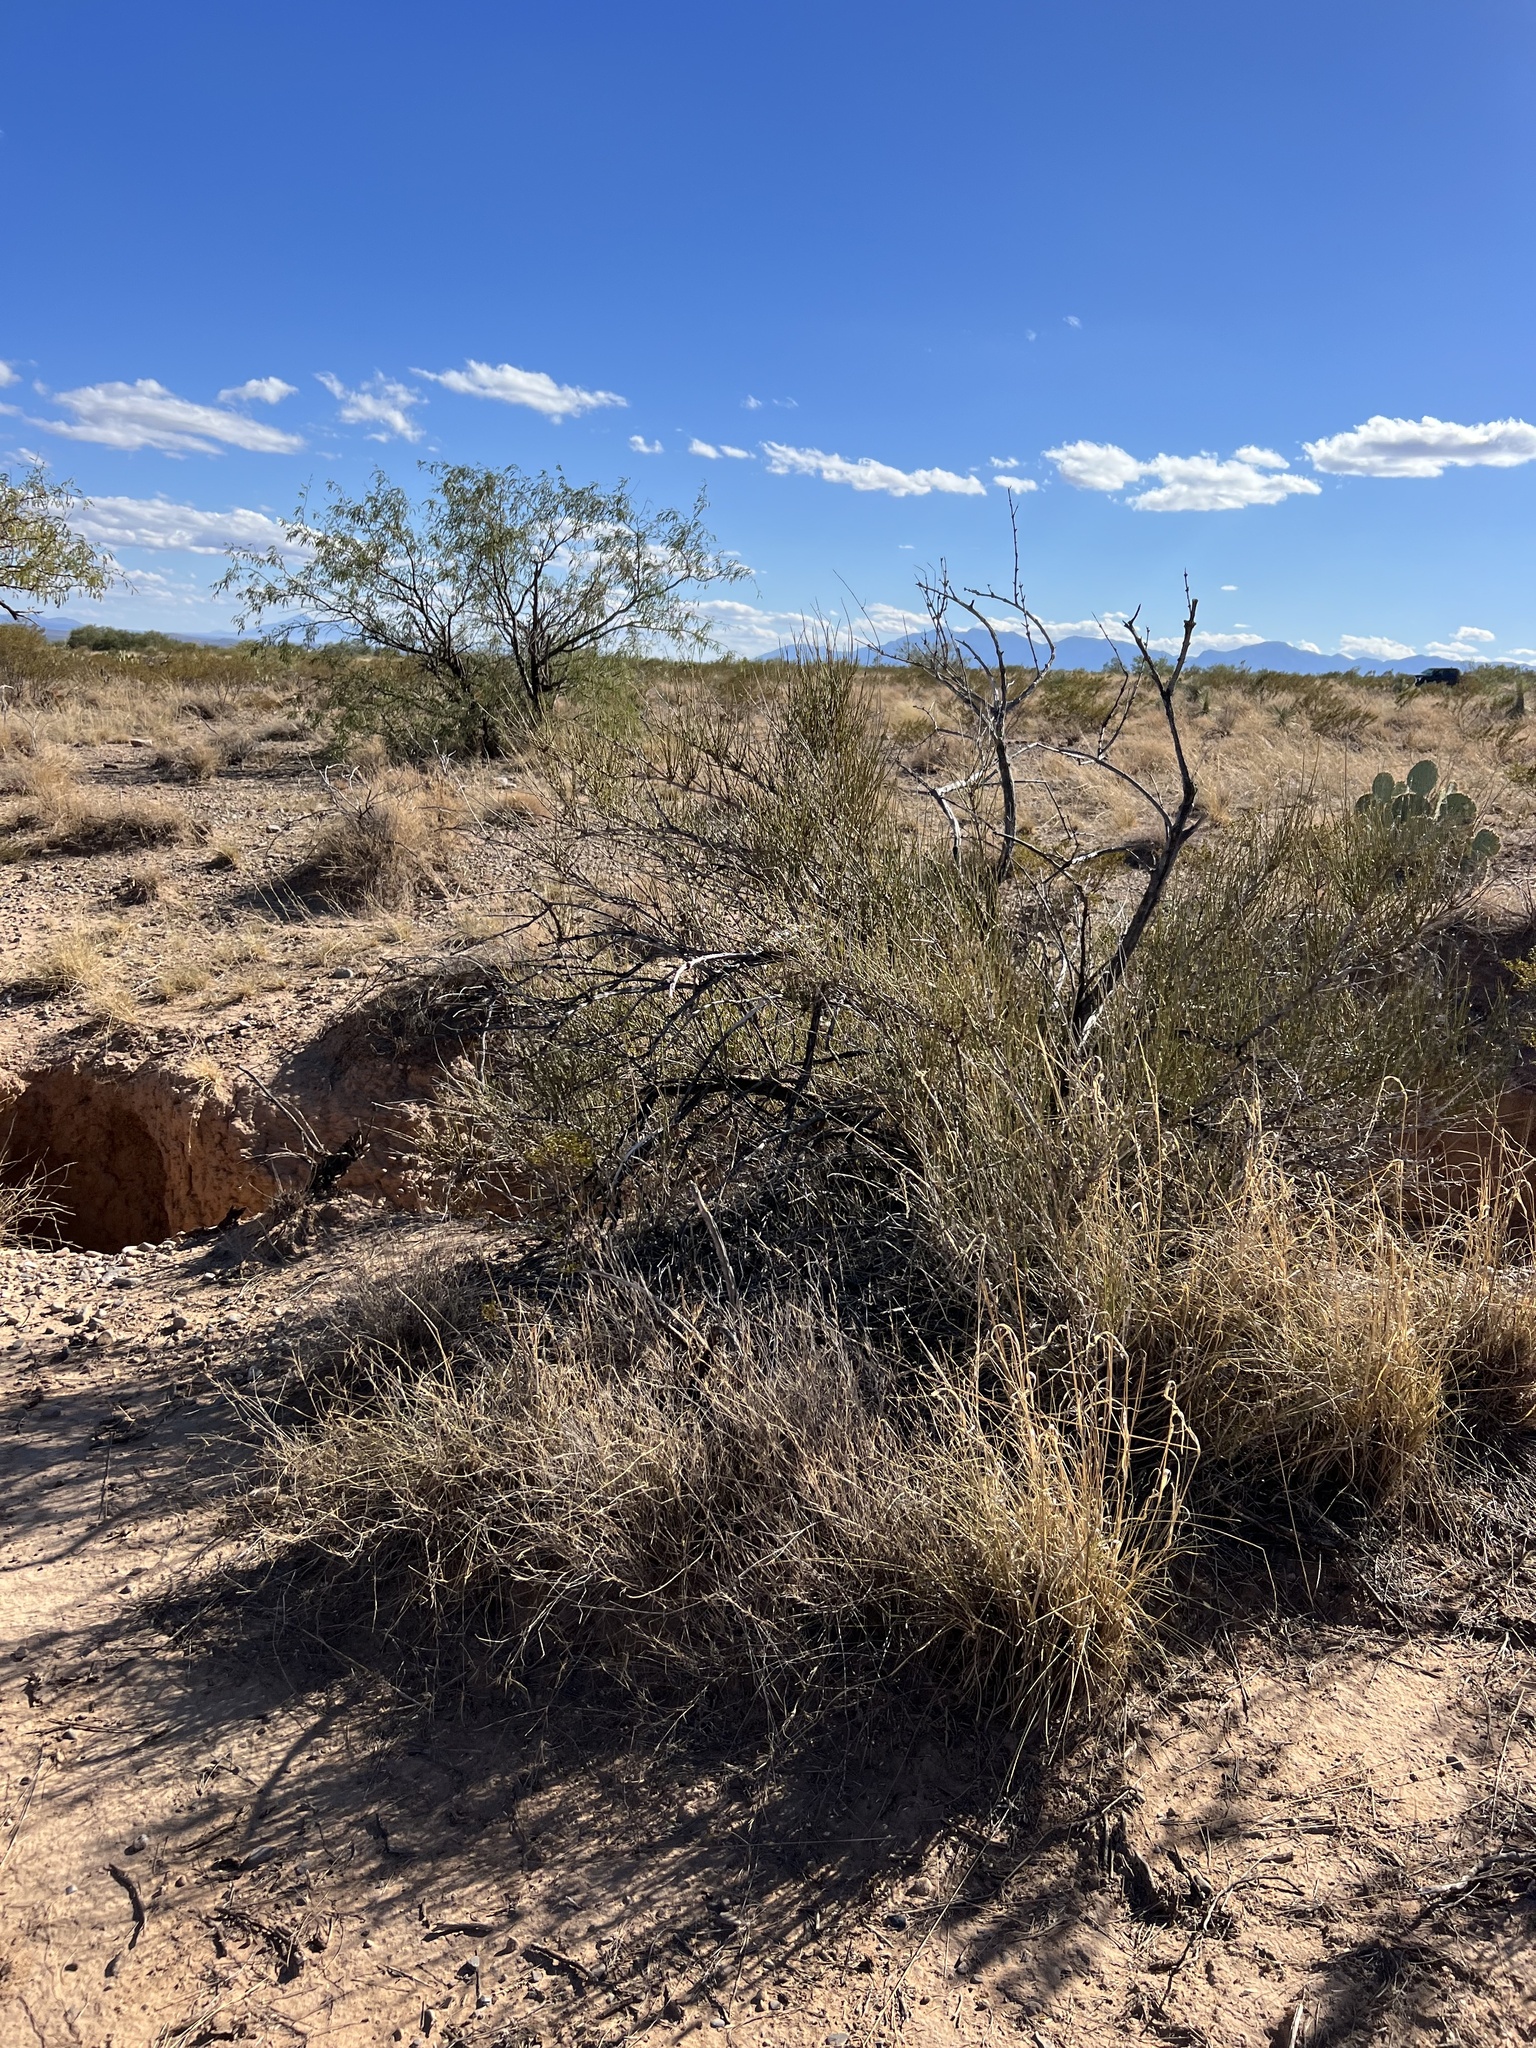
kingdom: Plantae
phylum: Tracheophyta
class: Gnetopsida
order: Ephedrales
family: Ephedraceae
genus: Ephedra
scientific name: Ephedra trifurca
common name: Mexican-tea
